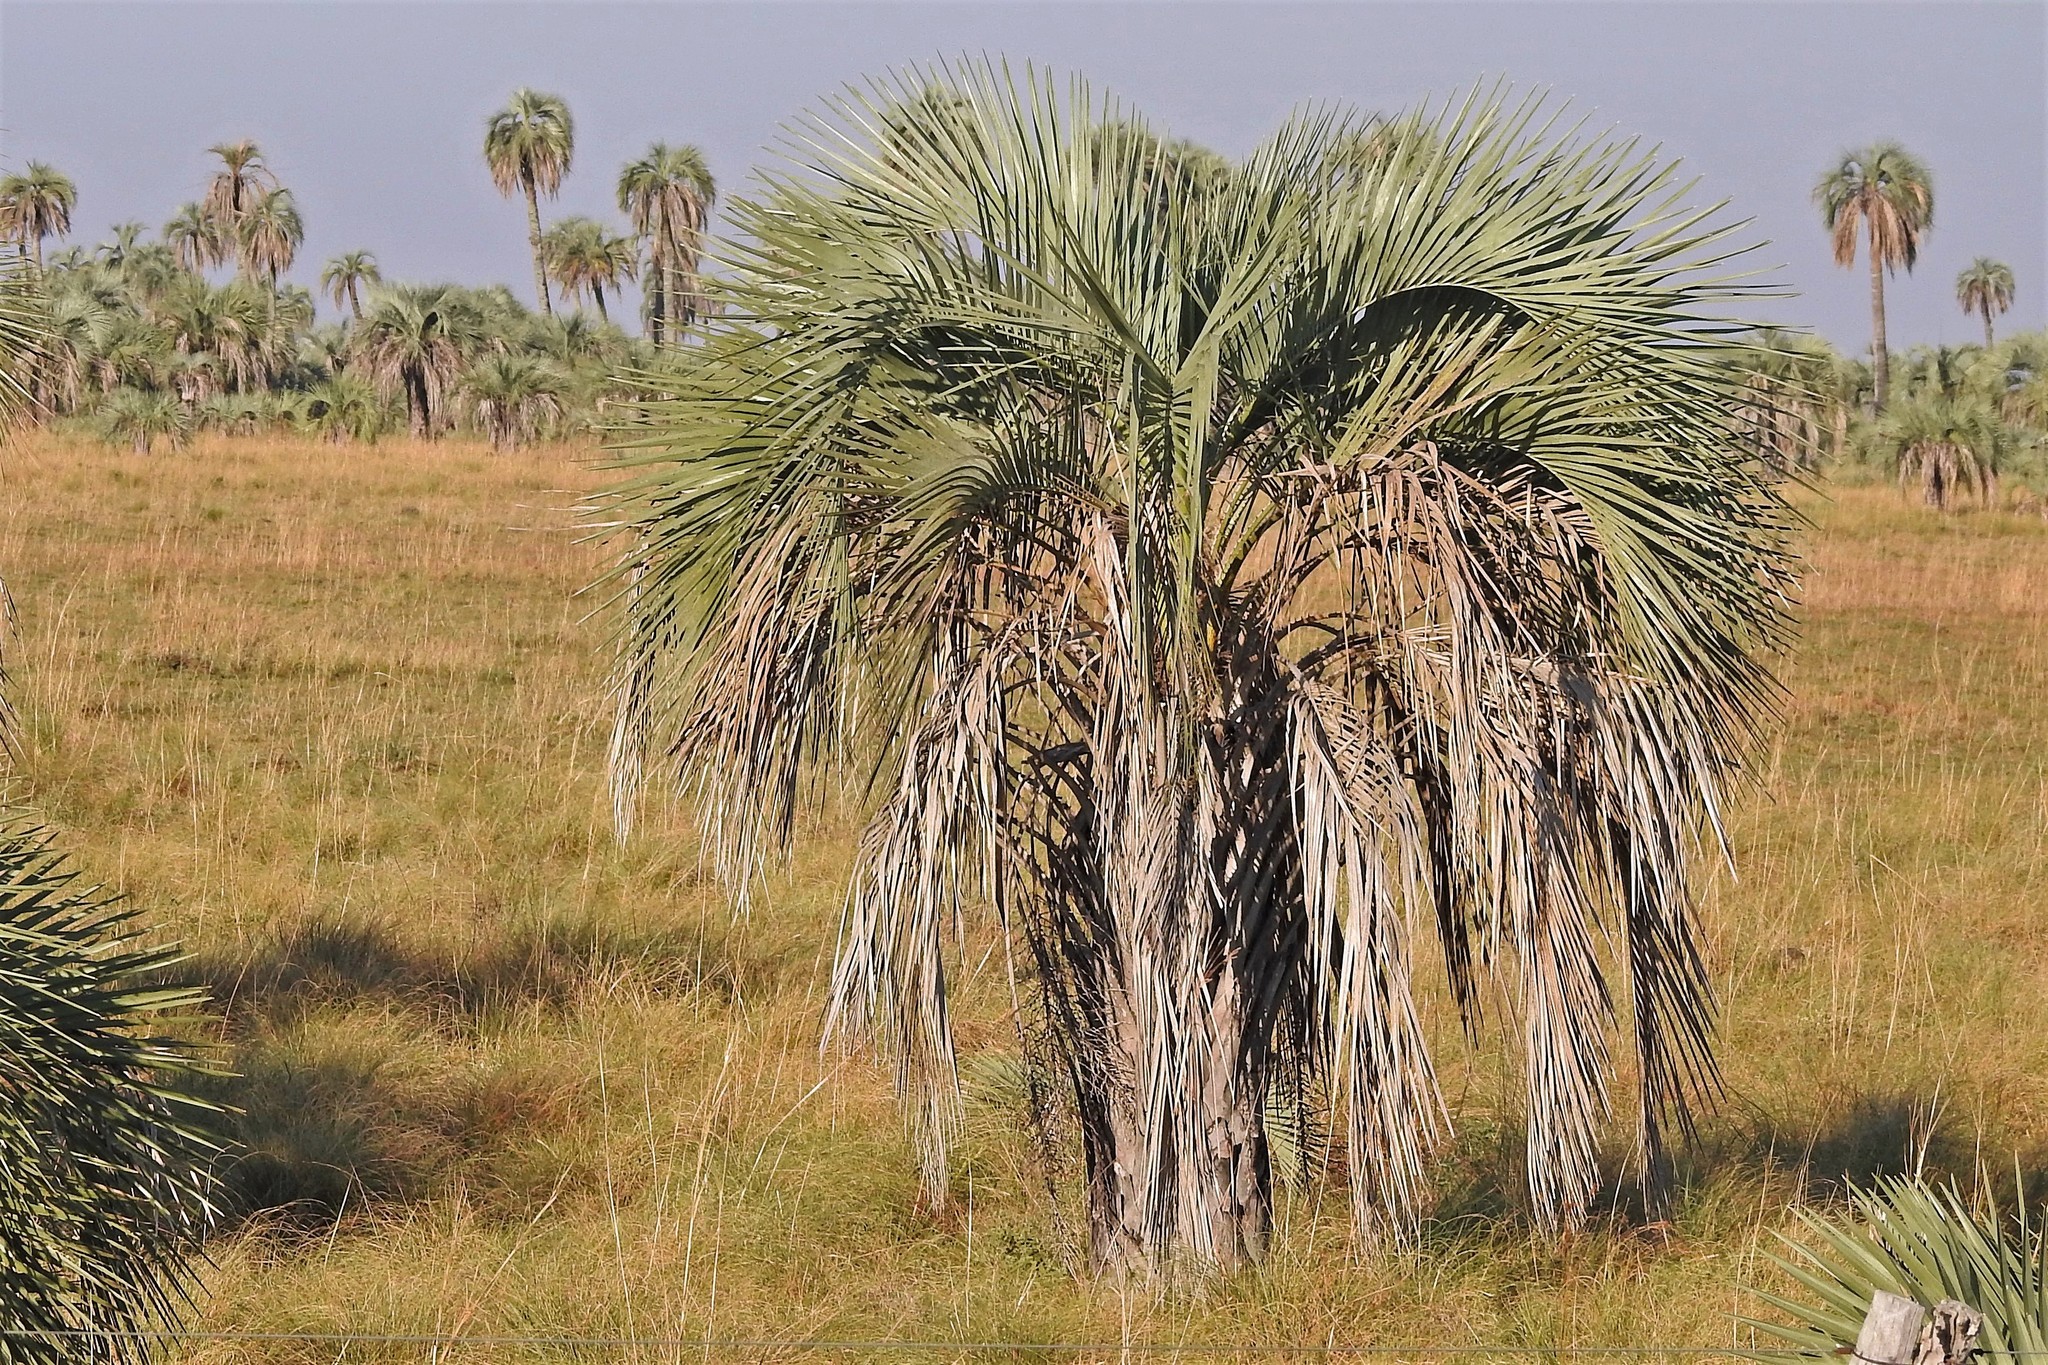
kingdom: Plantae
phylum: Tracheophyta
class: Liliopsida
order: Arecales
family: Arecaceae
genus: Butia
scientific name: Butia yatay
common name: Yatay palm
